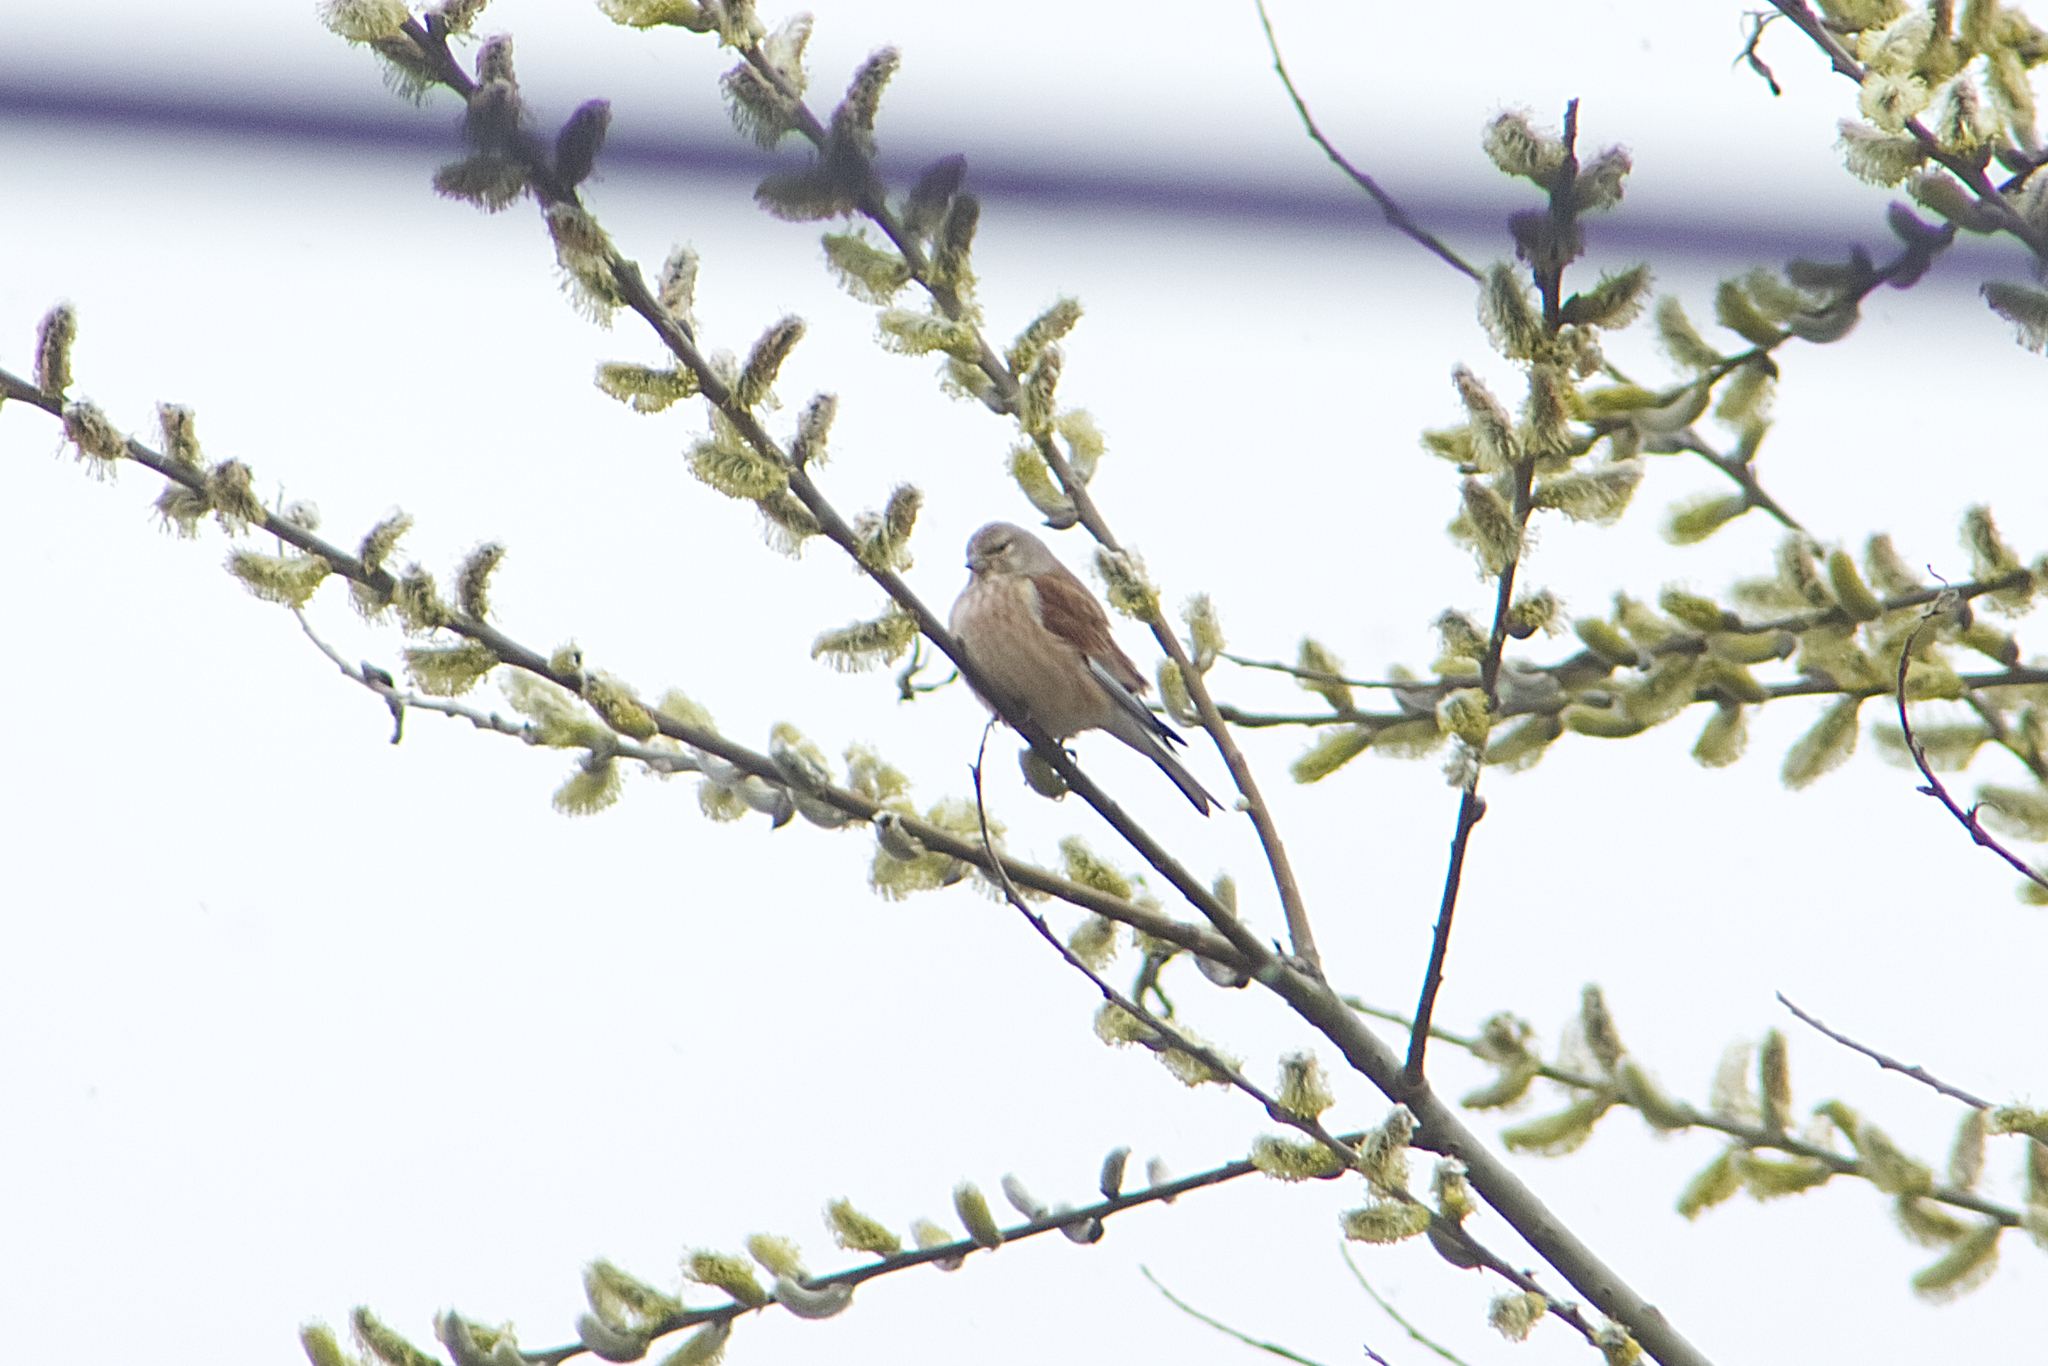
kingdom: Animalia
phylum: Chordata
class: Aves
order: Passeriformes
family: Fringillidae
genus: Linaria
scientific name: Linaria cannabina
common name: Common linnet
